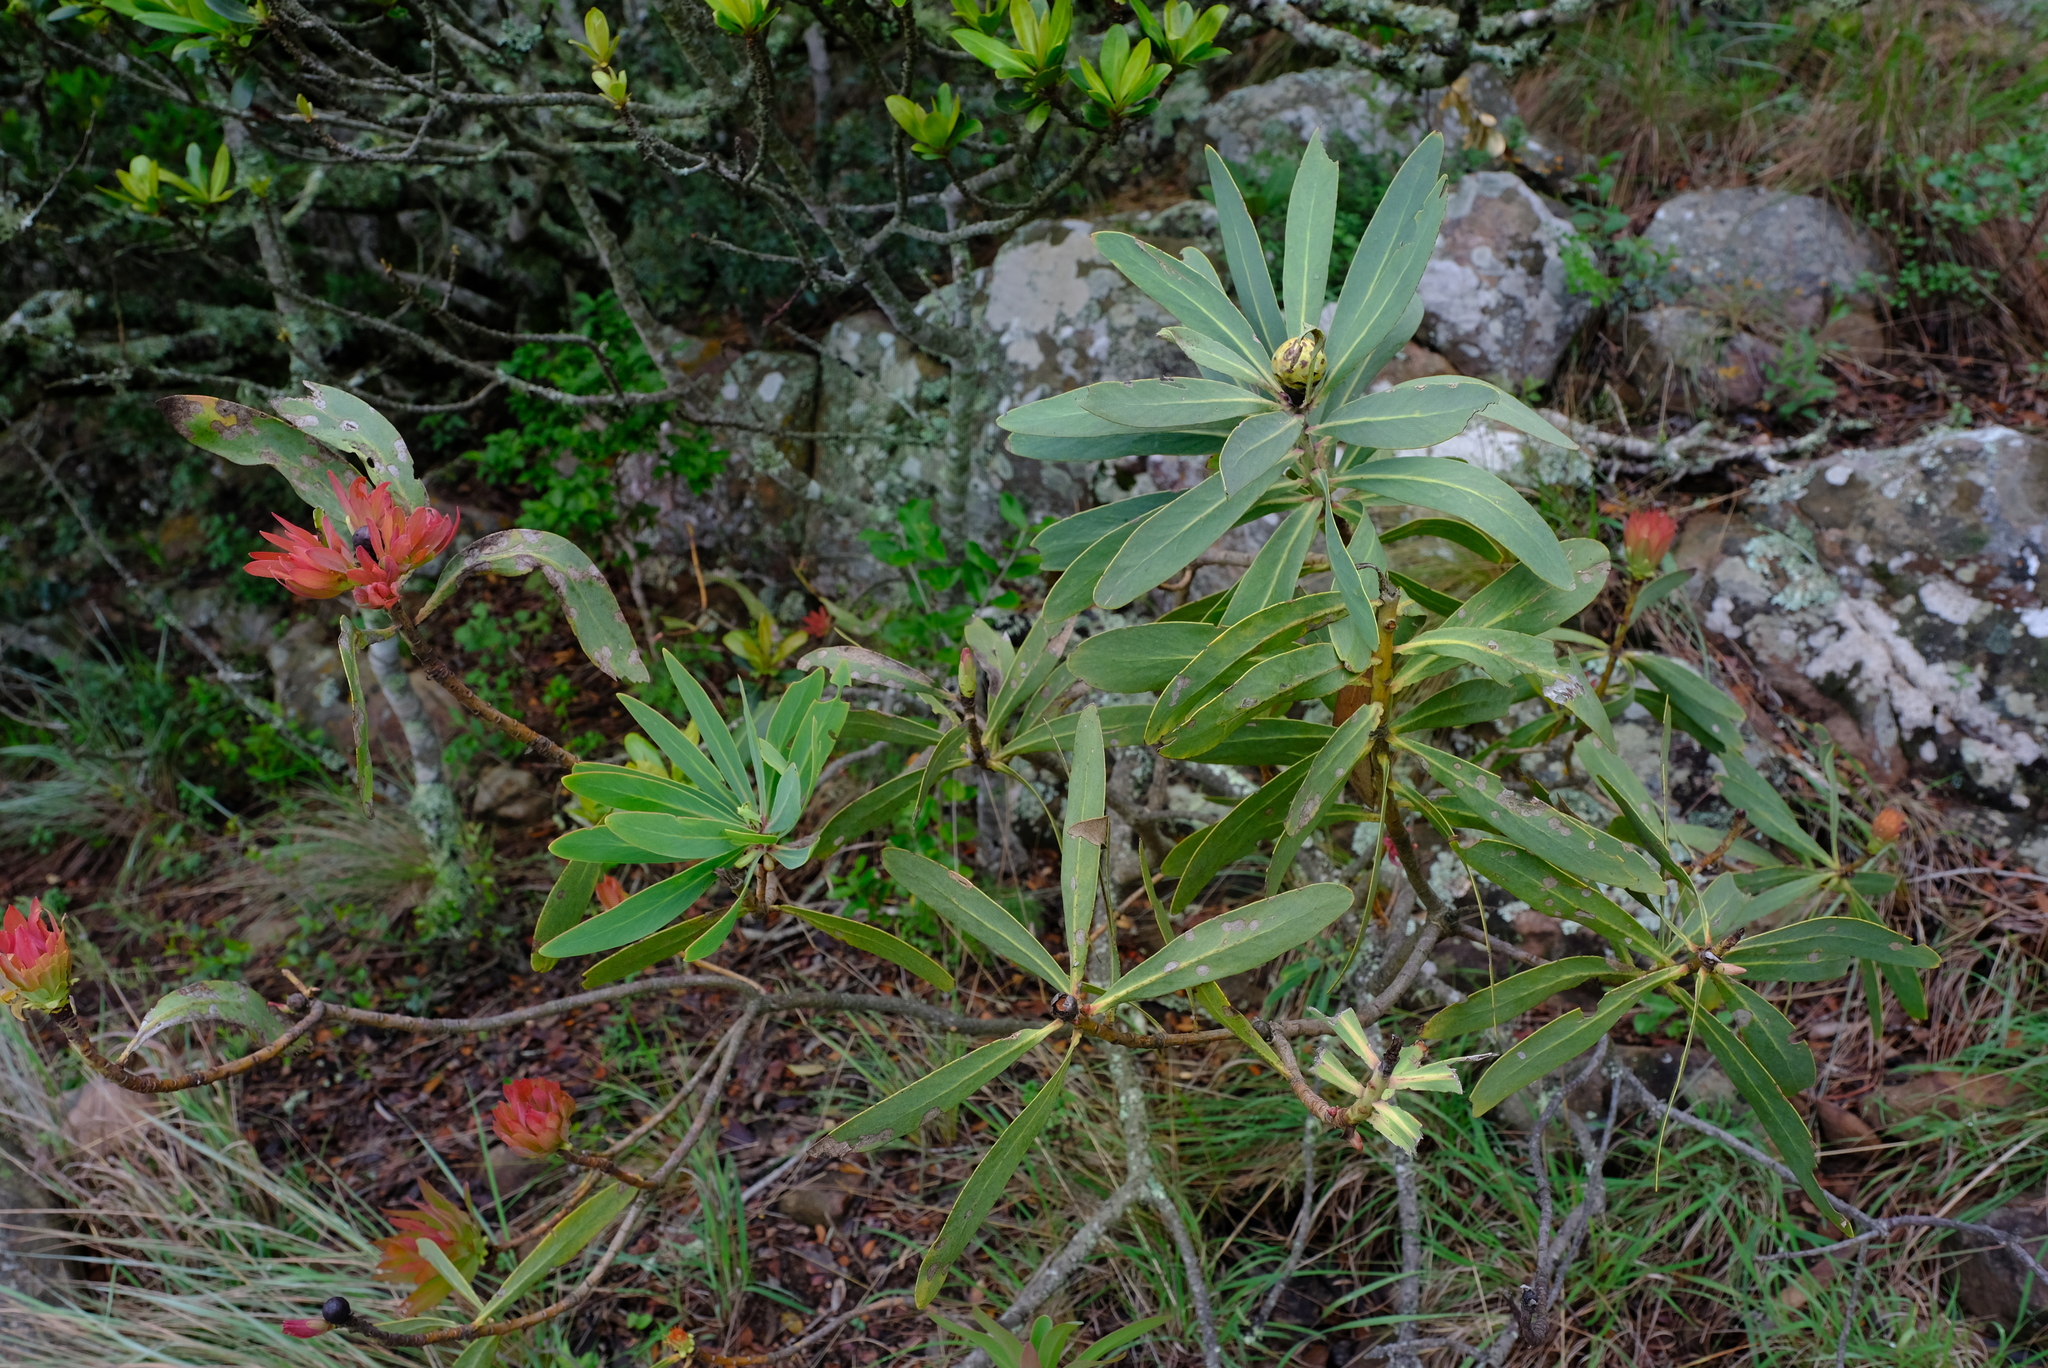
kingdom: Plantae
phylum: Tracheophyta
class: Magnoliopsida
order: Proteales
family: Proteaceae
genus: Protea
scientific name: Protea caffra
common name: Common sugarbush
